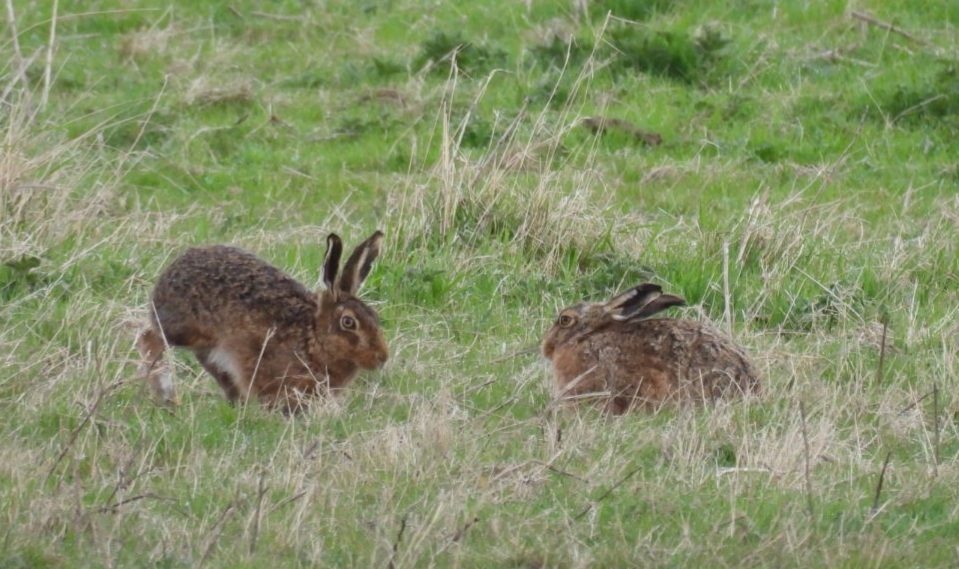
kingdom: Animalia
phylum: Chordata
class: Mammalia
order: Lagomorpha
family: Leporidae
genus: Lepus
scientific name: Lepus europaeus
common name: European hare
